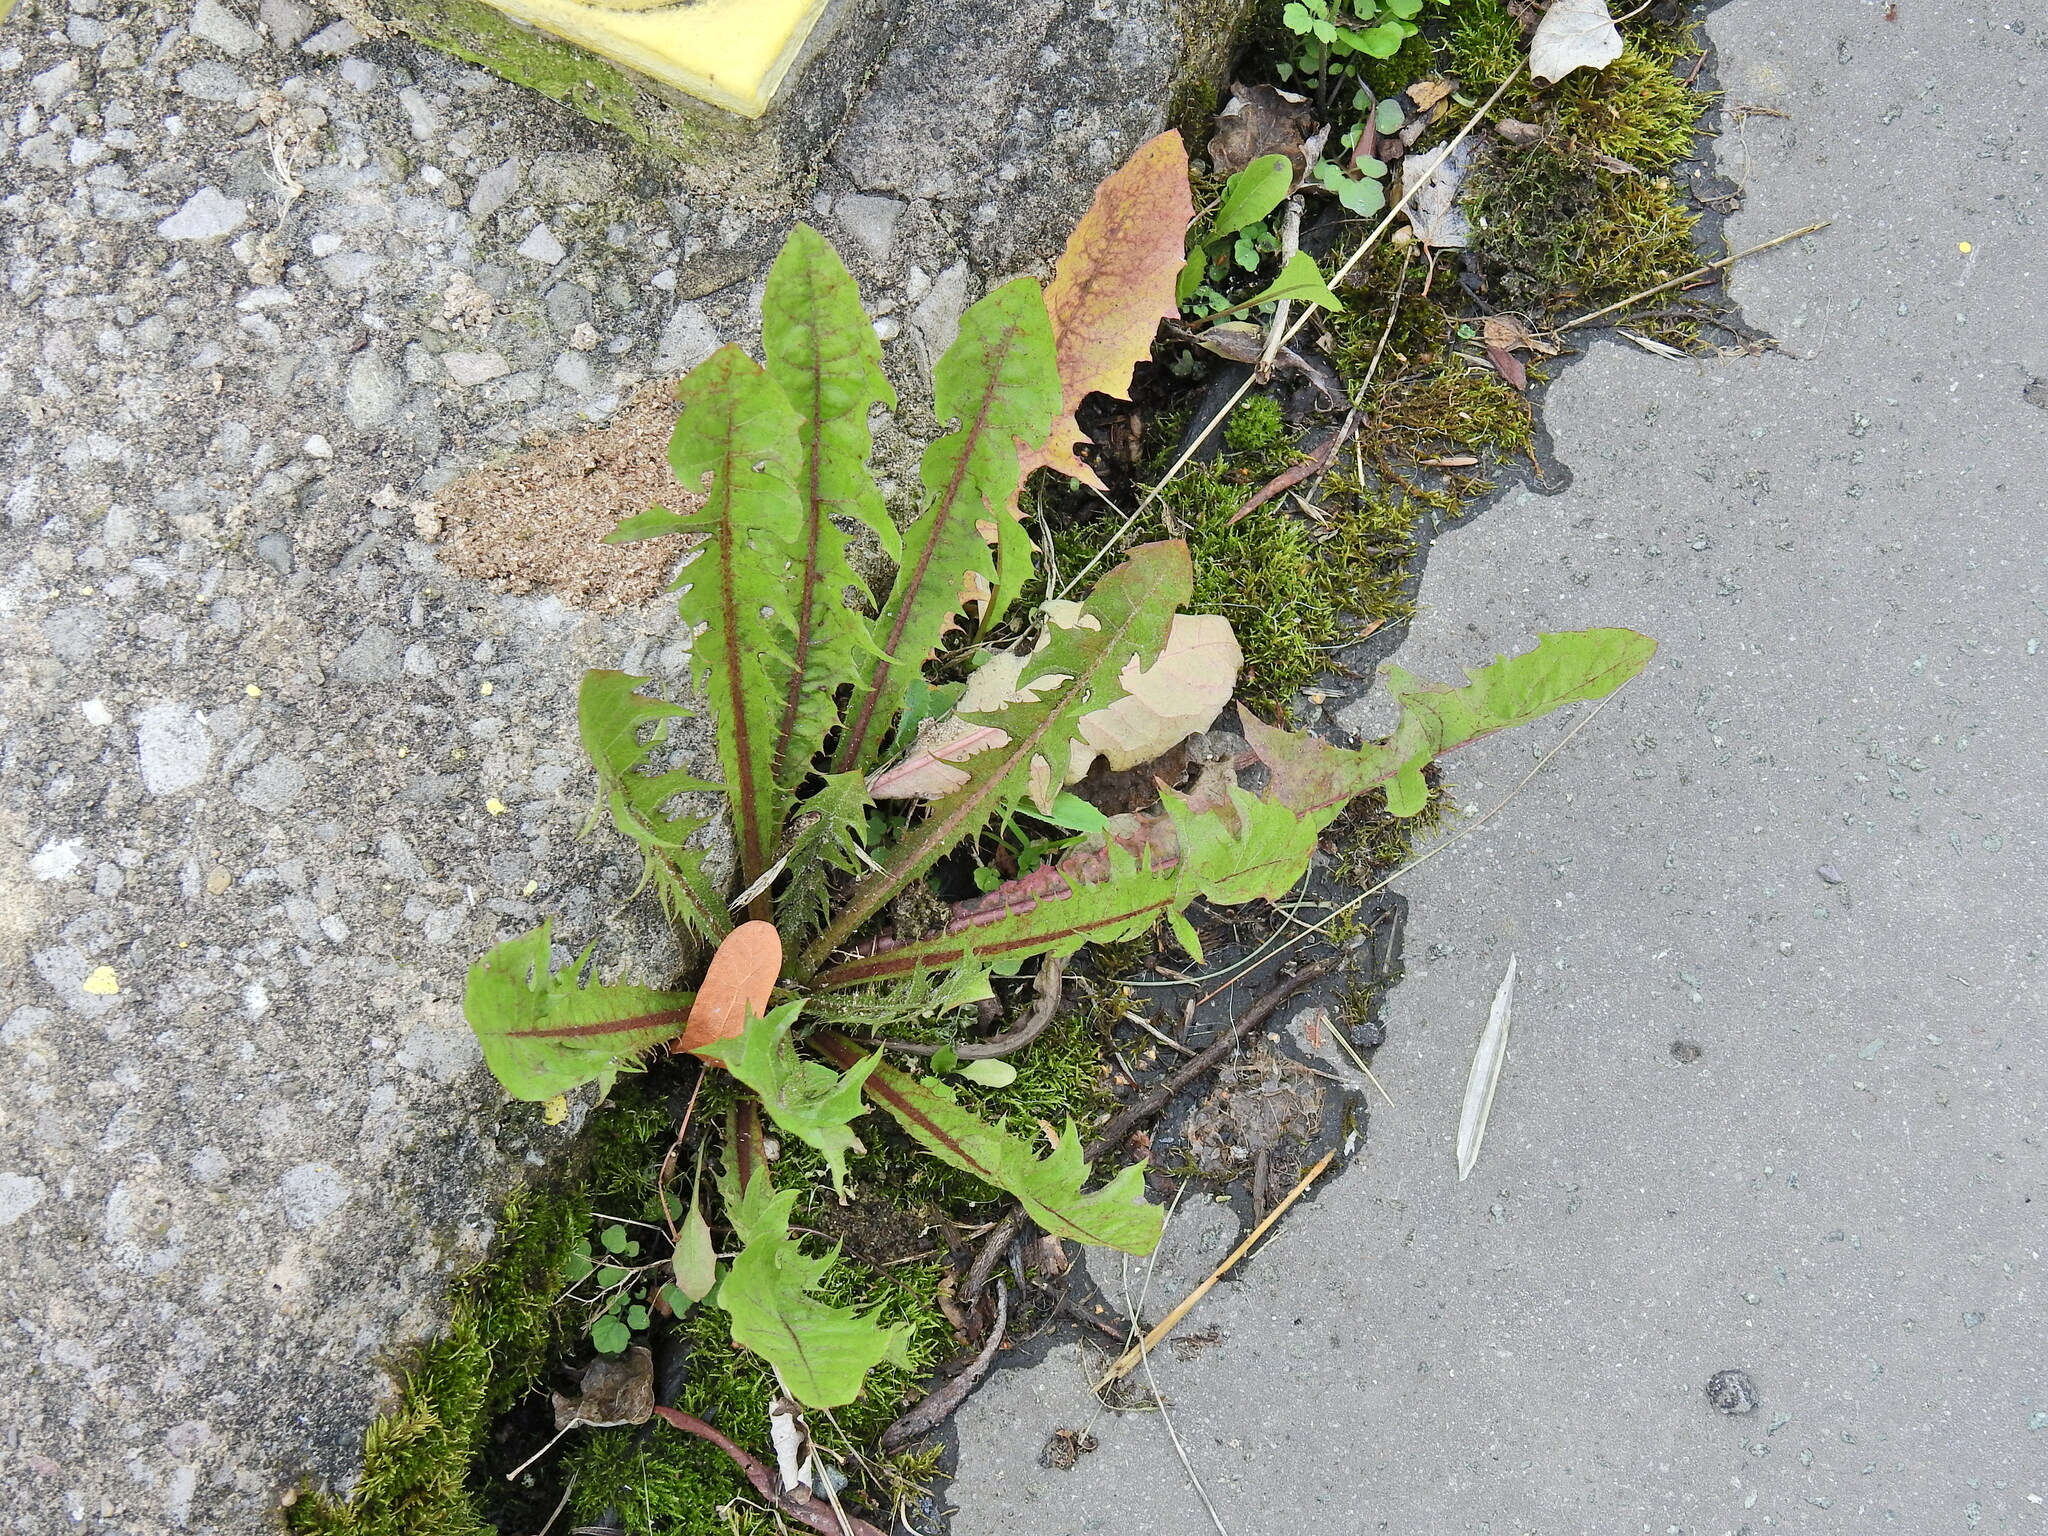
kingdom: Plantae
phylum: Tracheophyta
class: Magnoliopsida
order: Asterales
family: Asteraceae
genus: Taraxacum
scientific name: Taraxacum officinale
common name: Common dandelion
